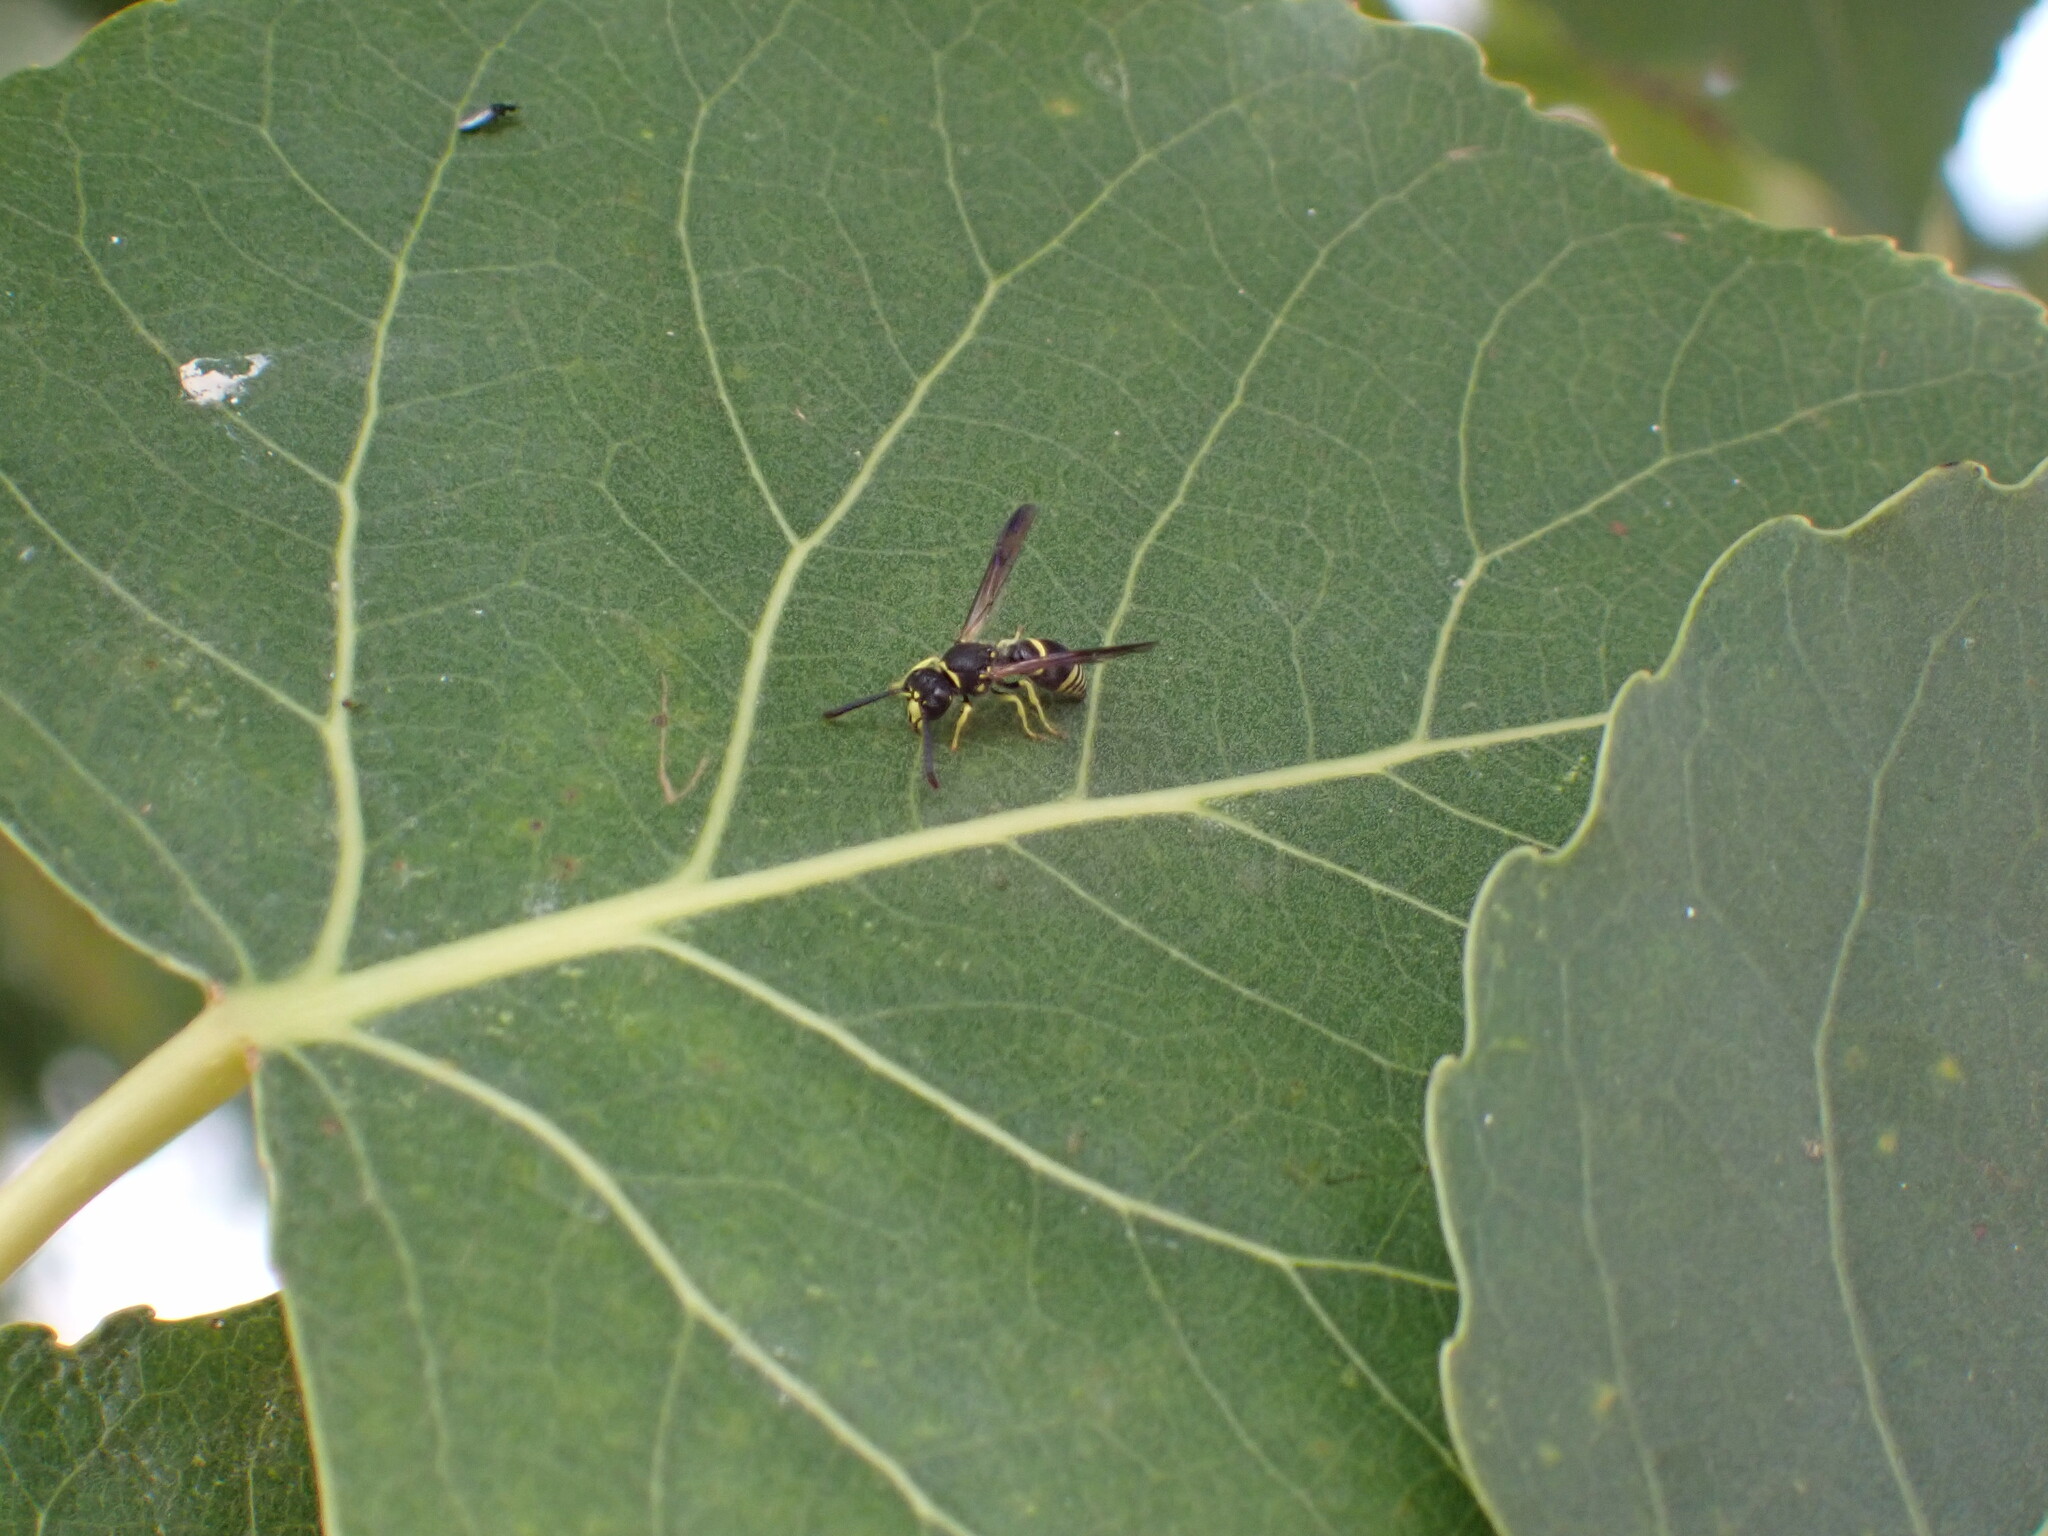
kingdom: Animalia
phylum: Arthropoda
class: Insecta
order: Hymenoptera
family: Vespidae
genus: Ancistrocerus
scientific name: Ancistrocerus adiabatus
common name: Bramble mason wasp
